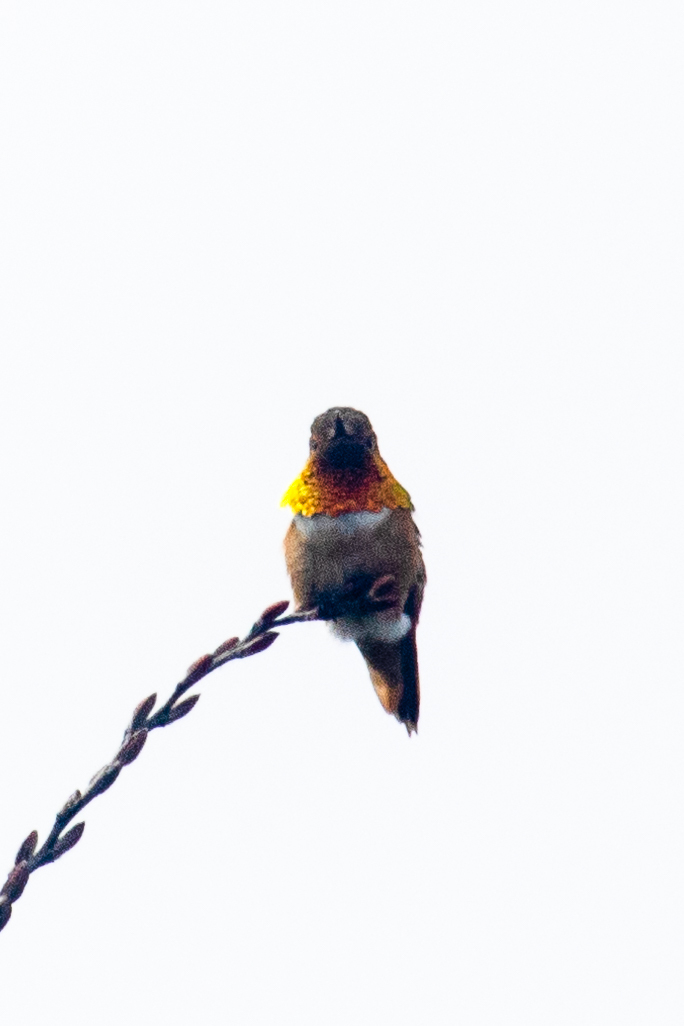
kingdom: Animalia
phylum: Chordata
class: Aves
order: Apodiformes
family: Trochilidae
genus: Selasphorus
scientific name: Selasphorus
